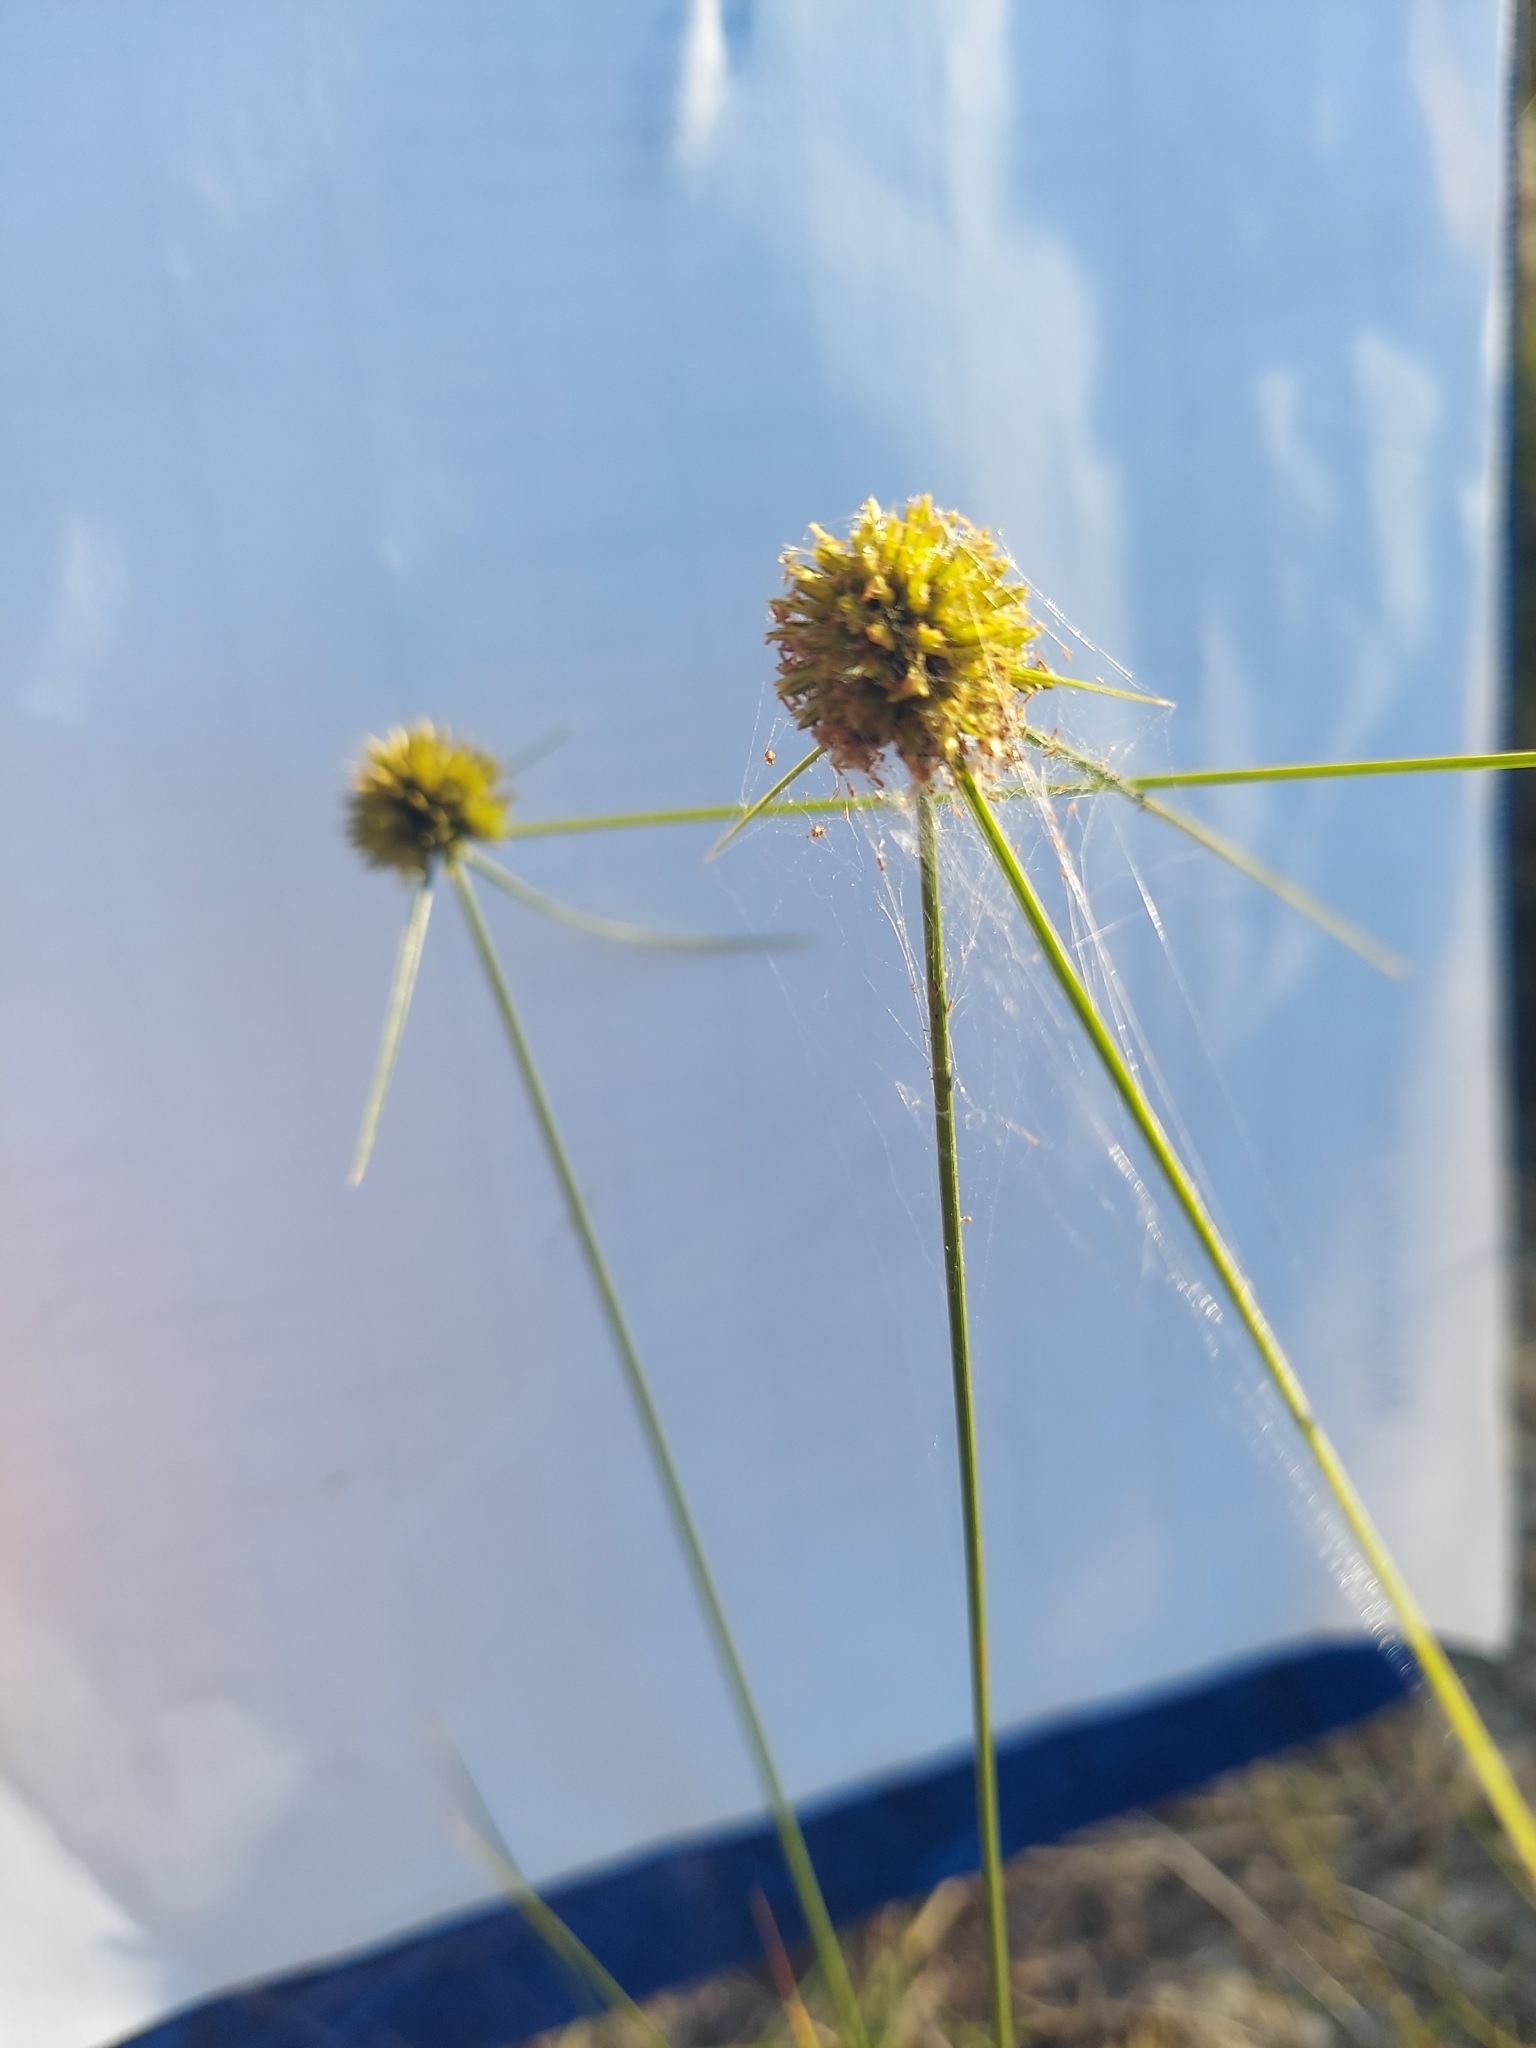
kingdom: Plantae
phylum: Tracheophyta
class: Liliopsida
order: Poales
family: Cyperaceae
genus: Cyperus
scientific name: Cyperus filiculmis
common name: Slender sand sedge
